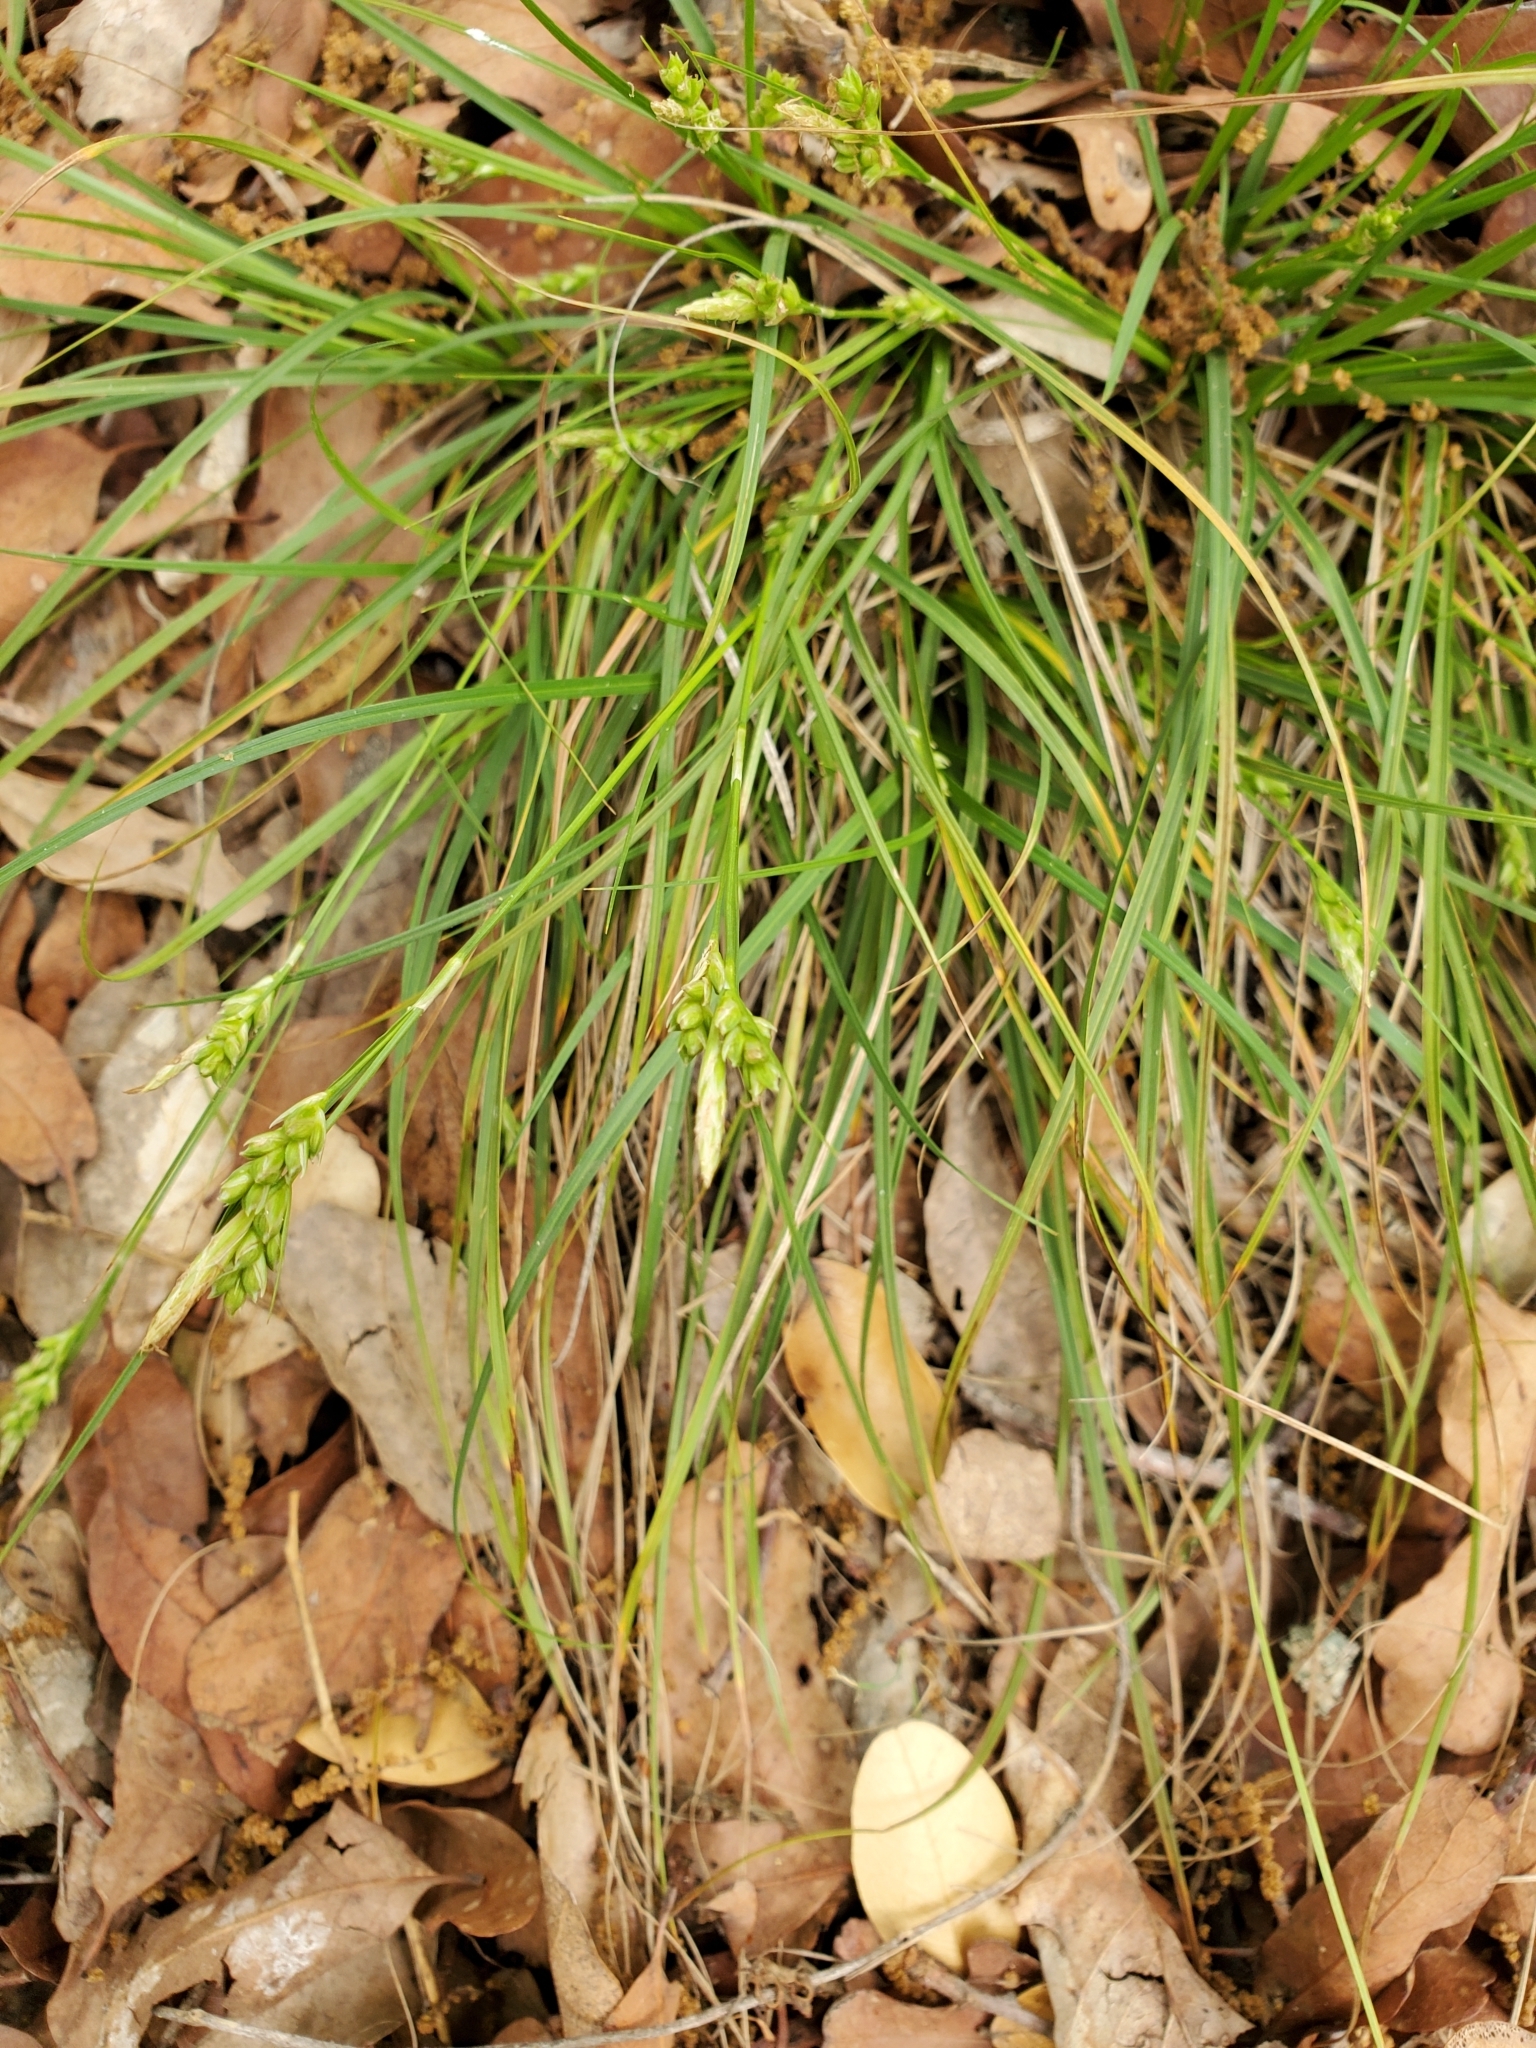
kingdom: Plantae
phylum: Tracheophyta
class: Liliopsida
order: Poales
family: Cyperaceae
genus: Carex
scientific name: Carex planostachys
